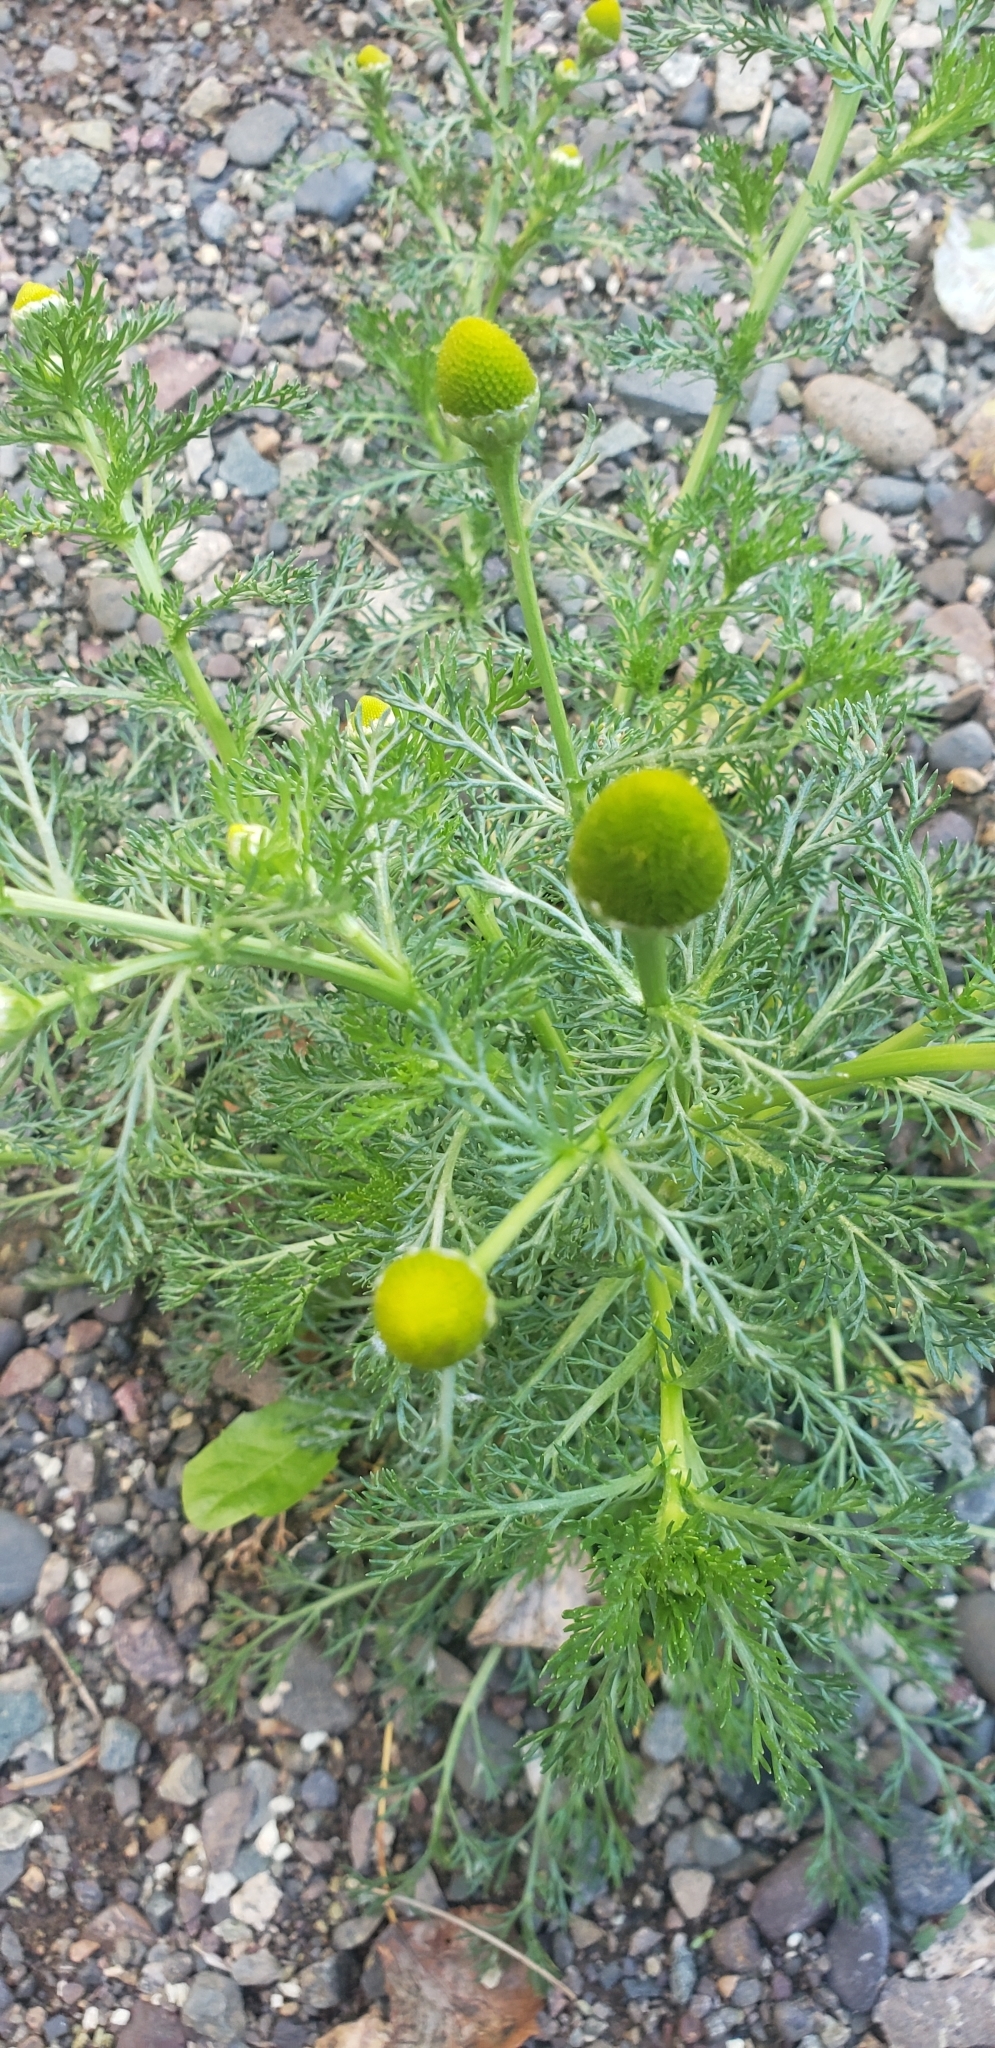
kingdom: Plantae
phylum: Tracheophyta
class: Magnoliopsida
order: Asterales
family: Asteraceae
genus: Matricaria
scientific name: Matricaria discoidea
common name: Disc mayweed
